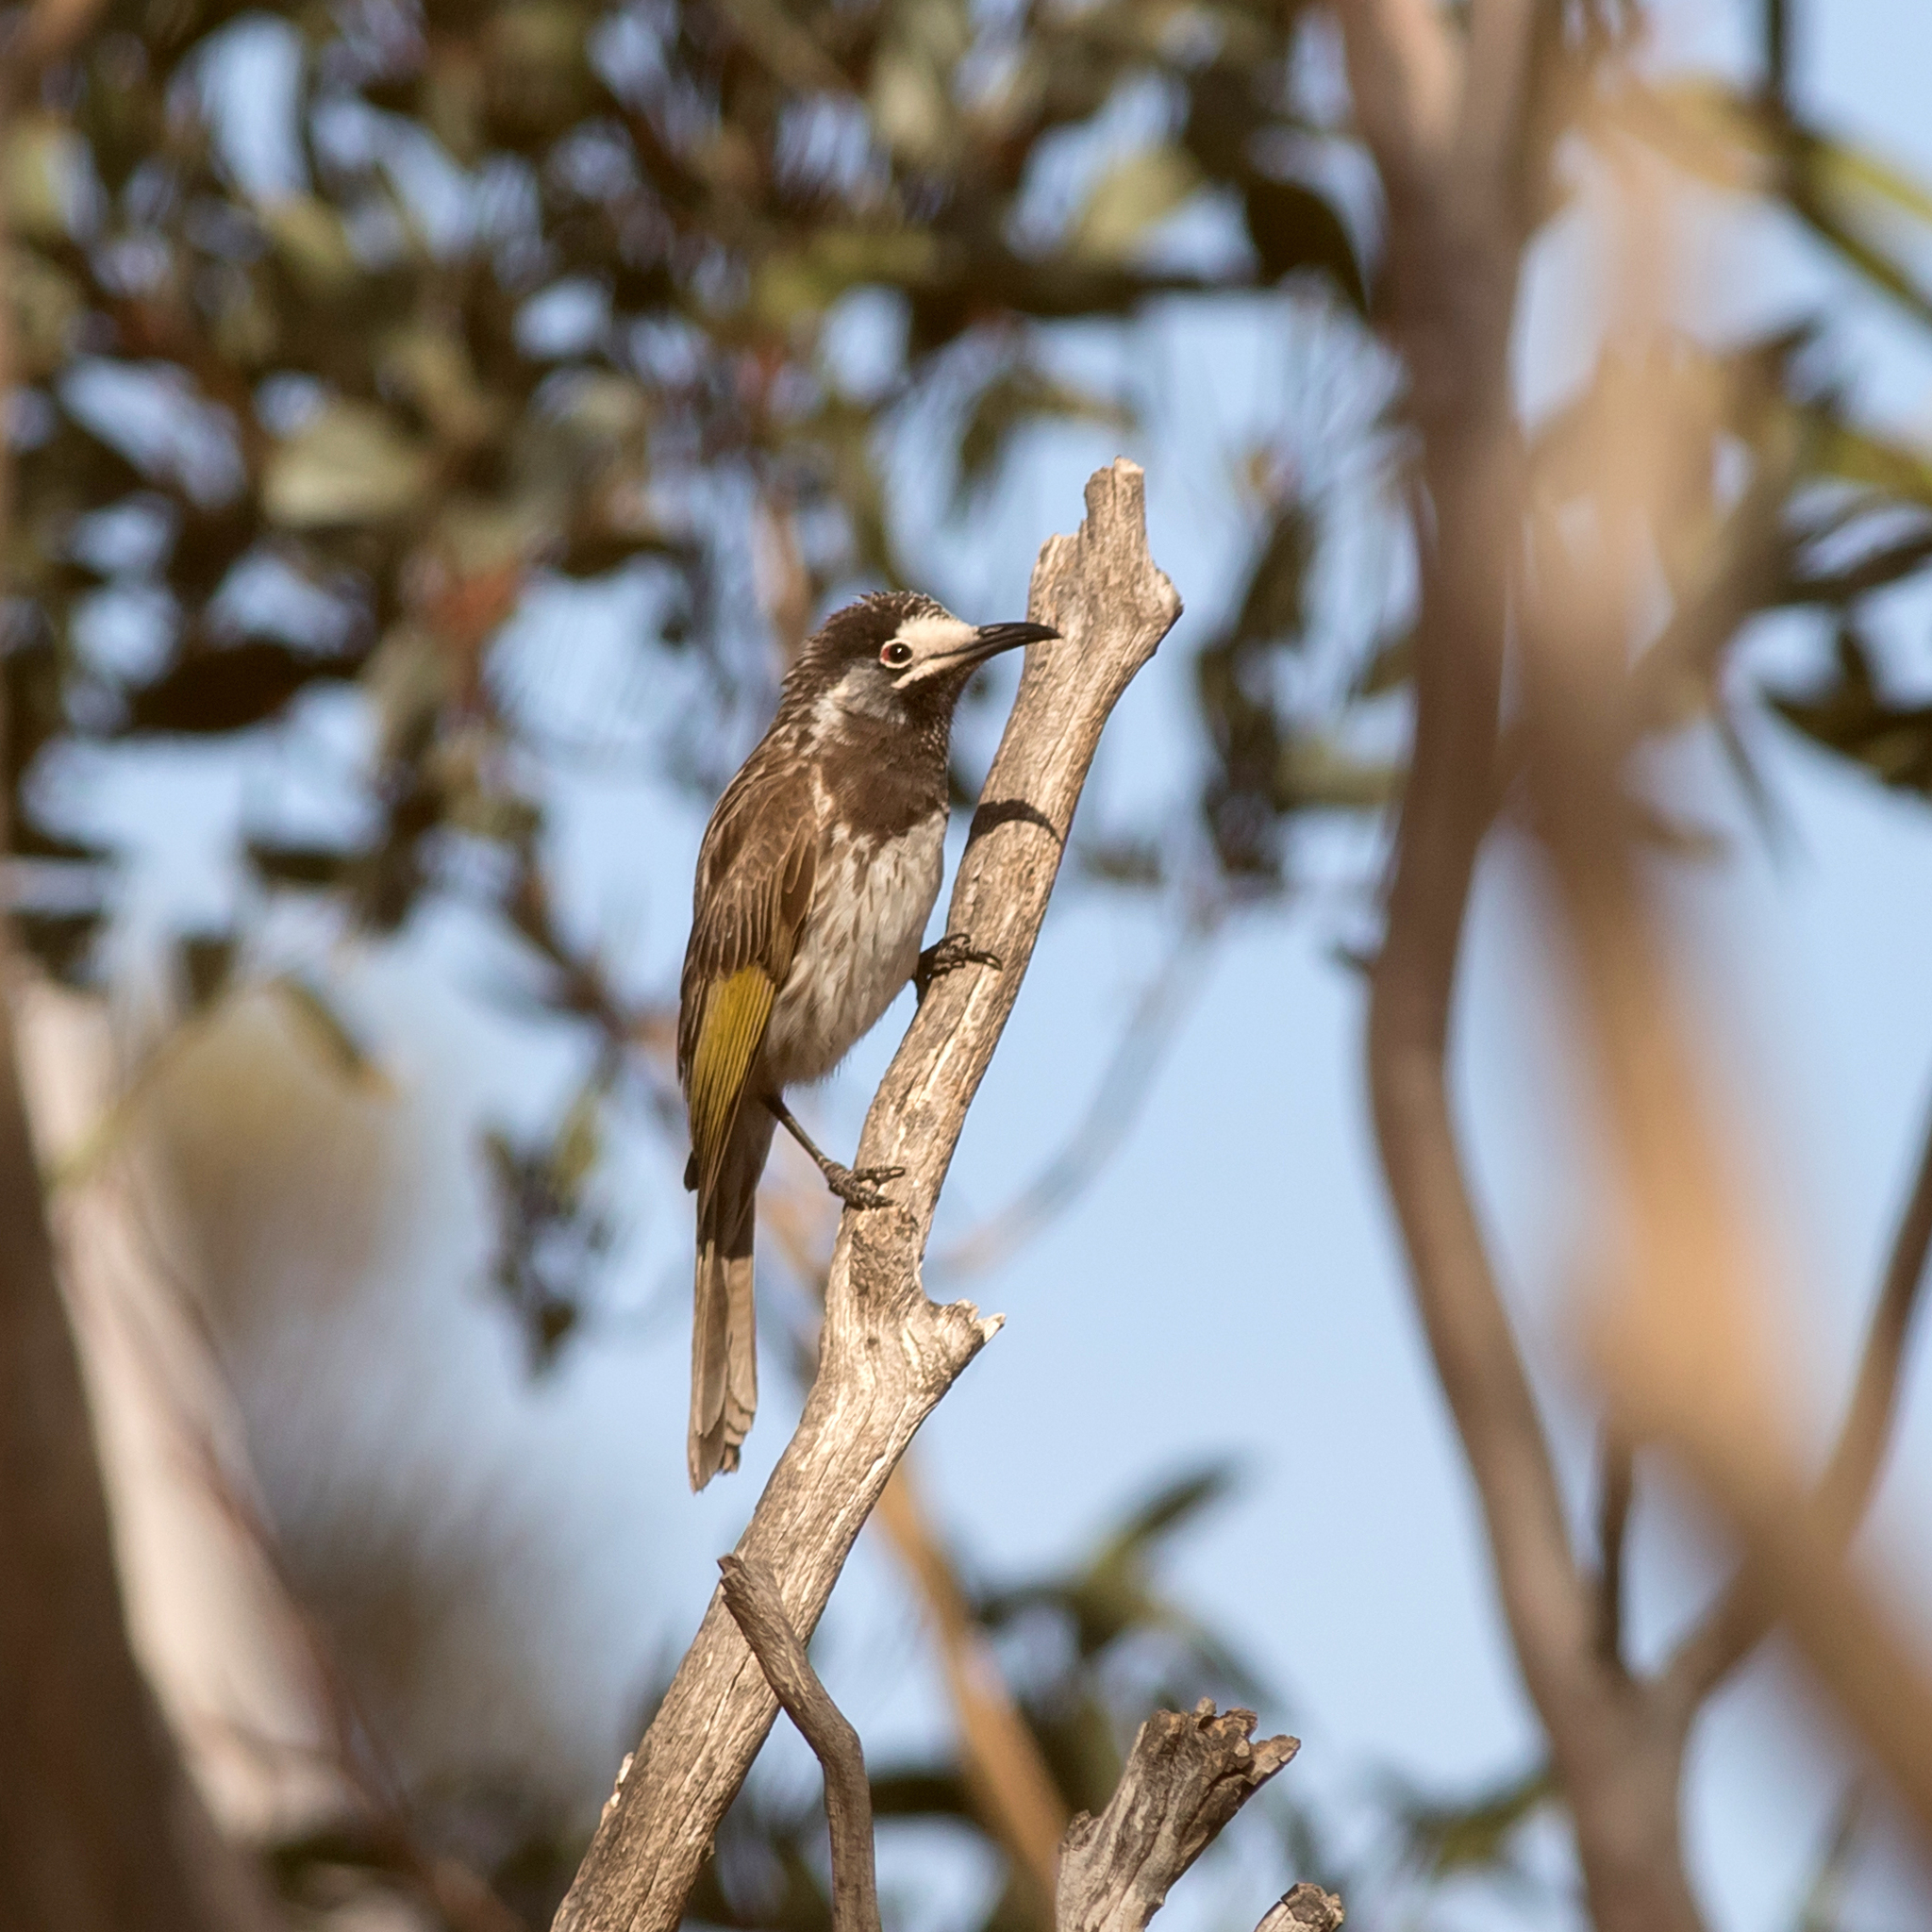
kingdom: Animalia
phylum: Chordata
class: Aves
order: Passeriformes
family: Meliphagidae
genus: Purnella
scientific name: Purnella albifrons
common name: White-fronted honeyeater
